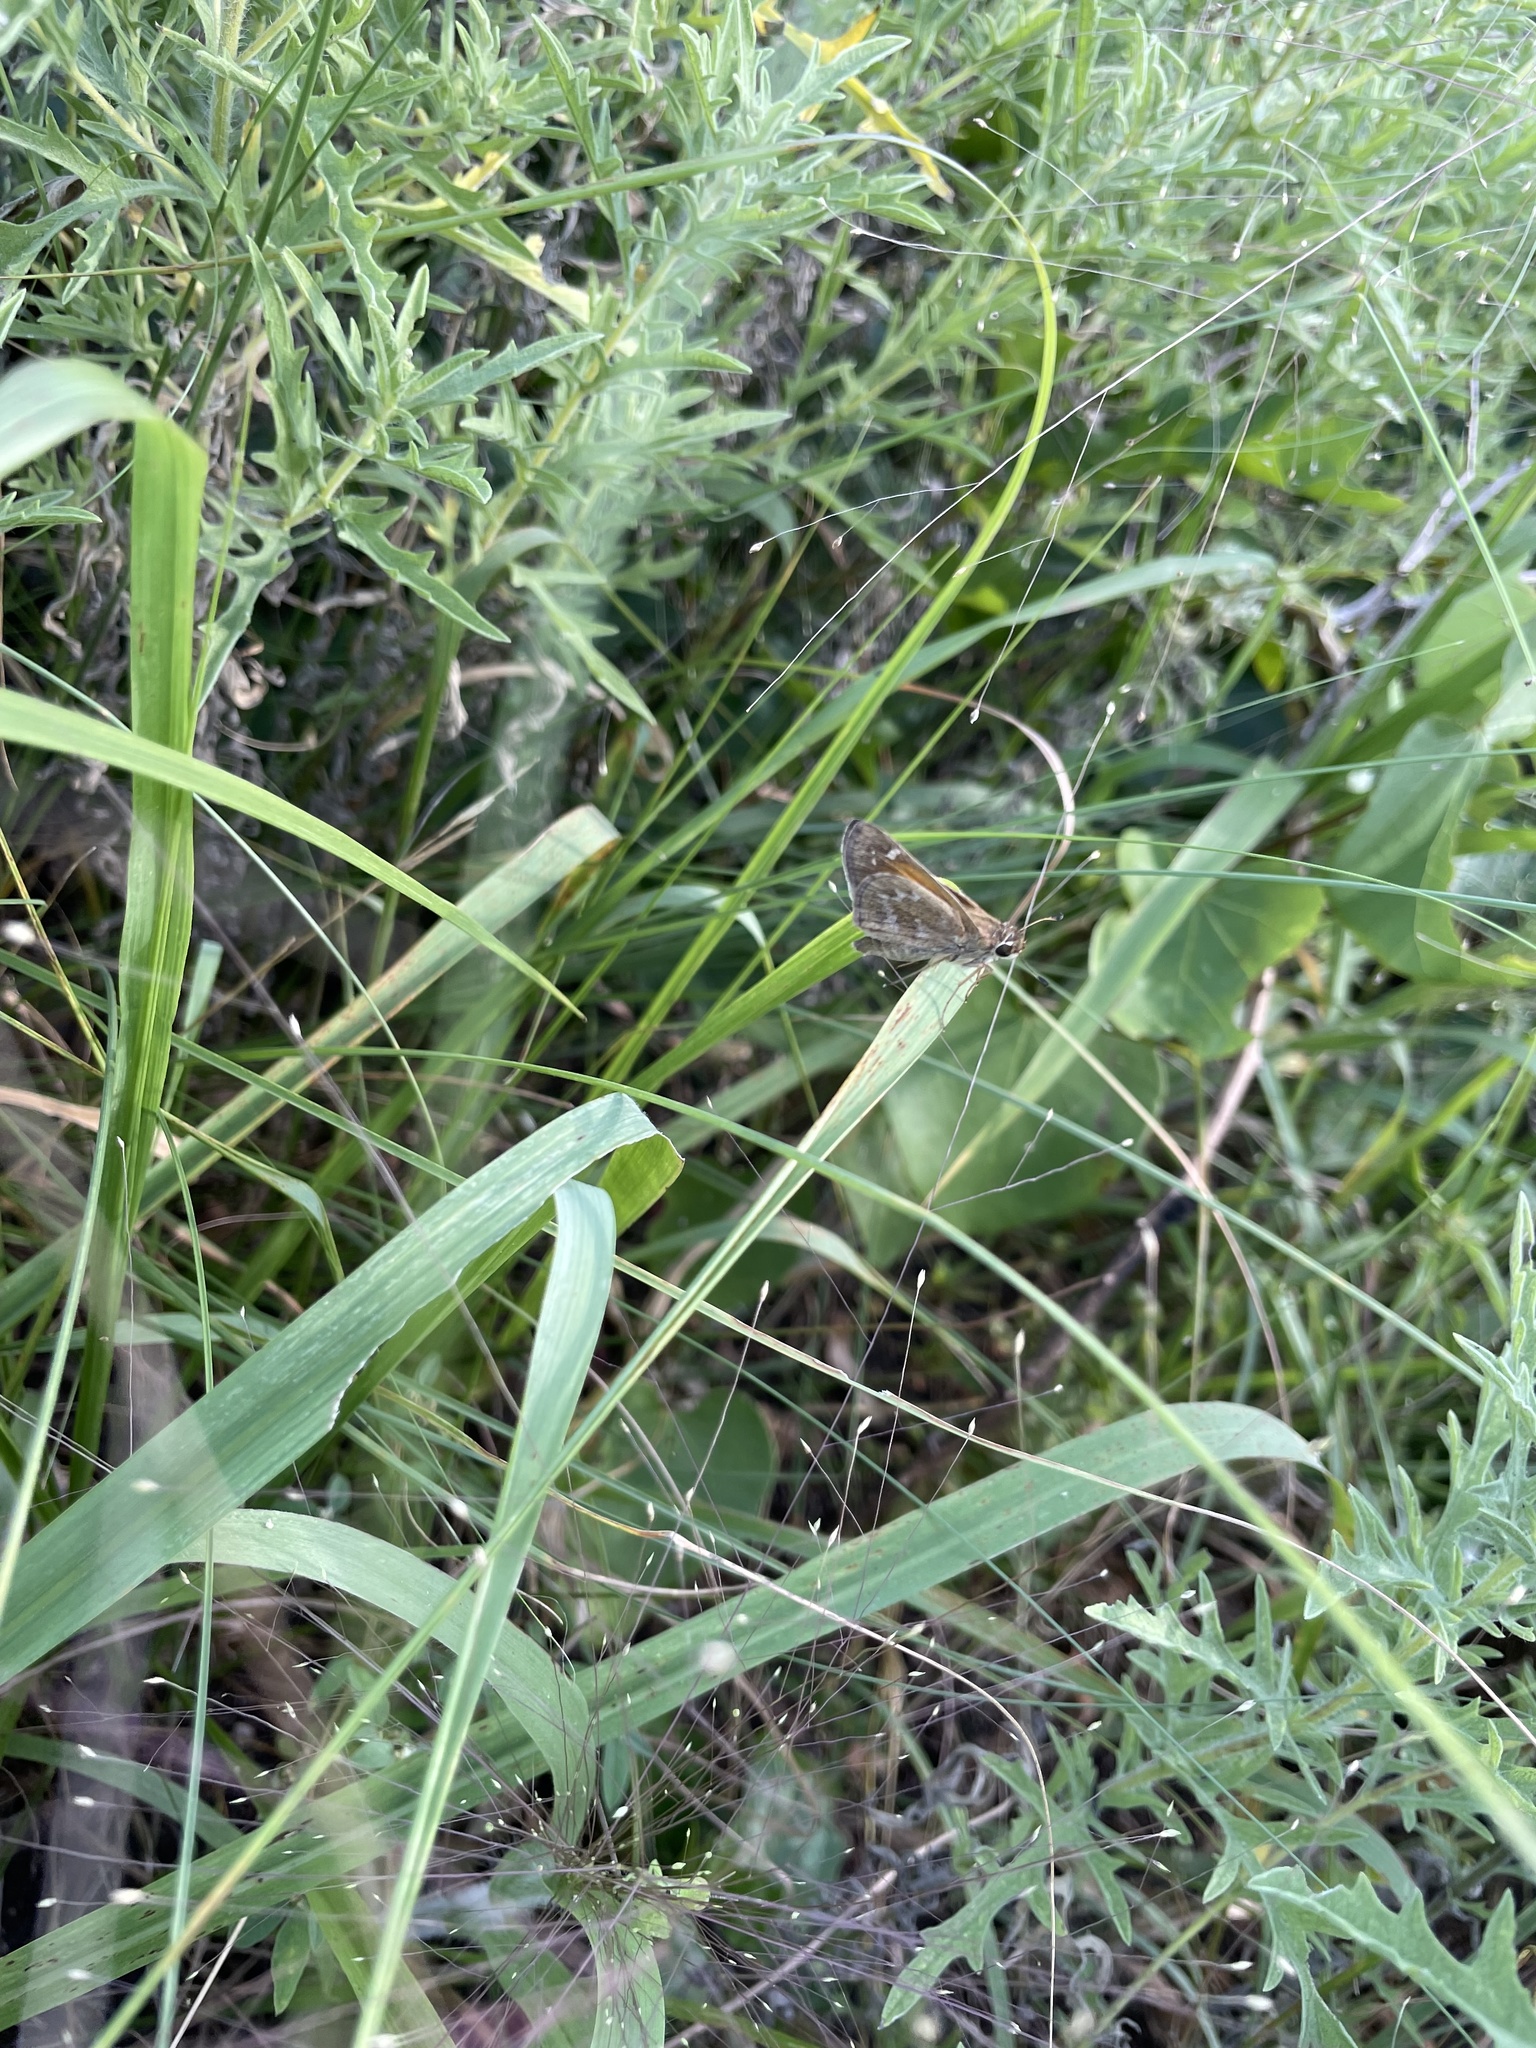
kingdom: Animalia
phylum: Arthropoda
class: Insecta
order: Lepidoptera
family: Hesperiidae
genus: Atalopedes
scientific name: Atalopedes
